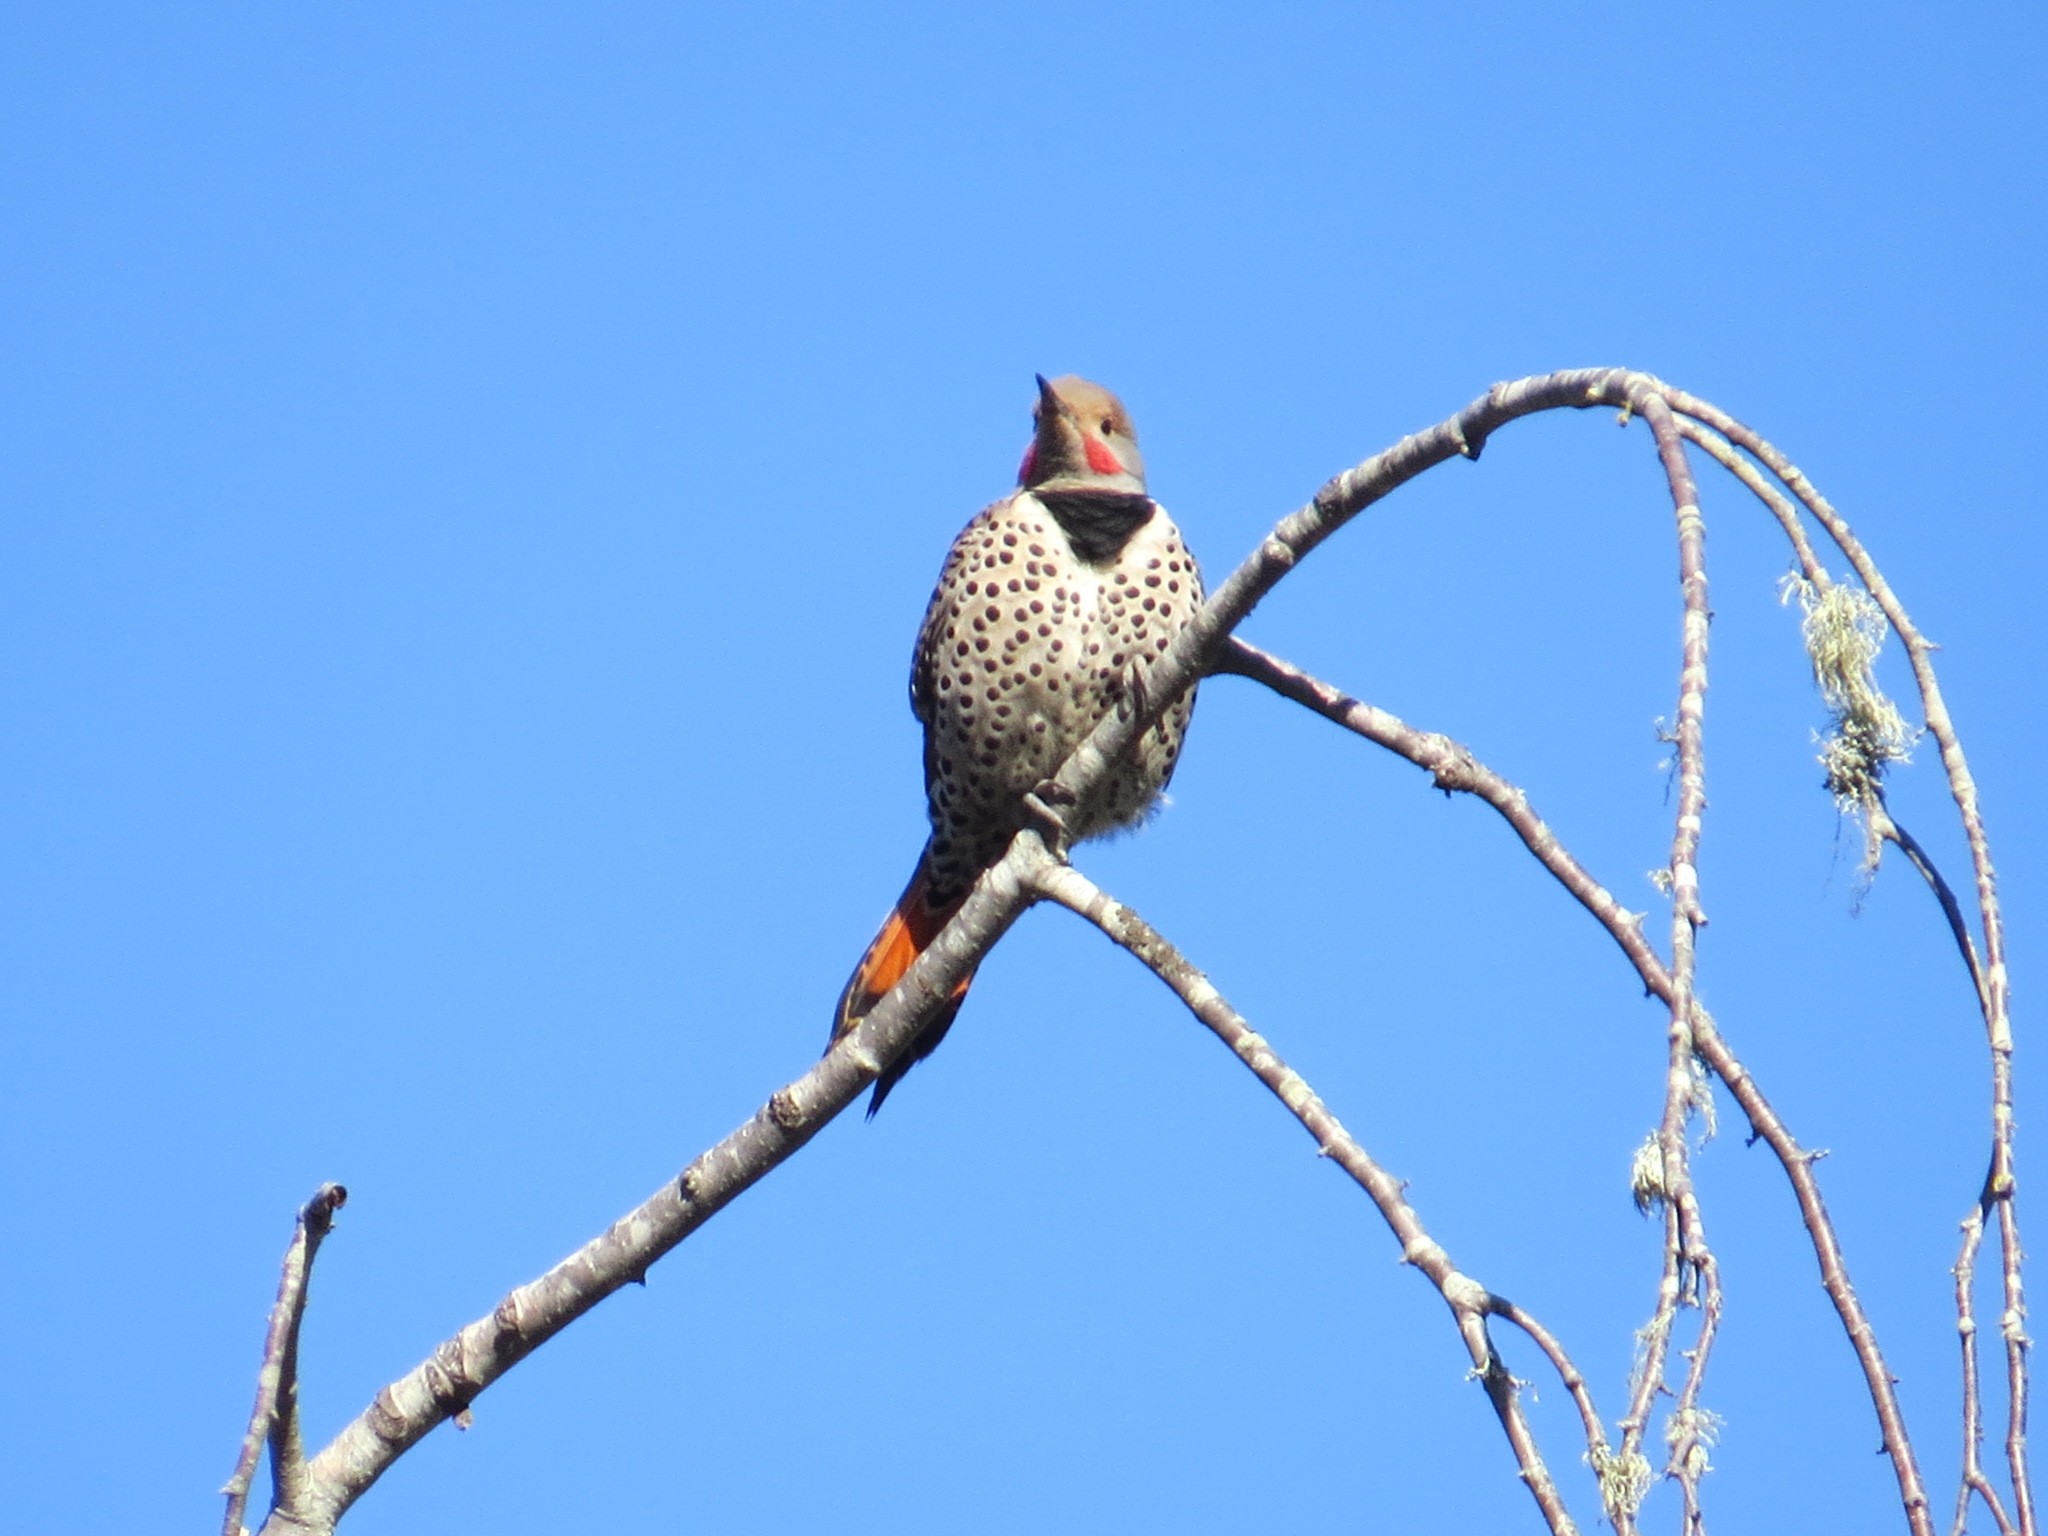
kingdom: Animalia
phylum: Chordata
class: Aves
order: Piciformes
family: Picidae
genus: Colaptes
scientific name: Colaptes auratus
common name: Northern flicker
